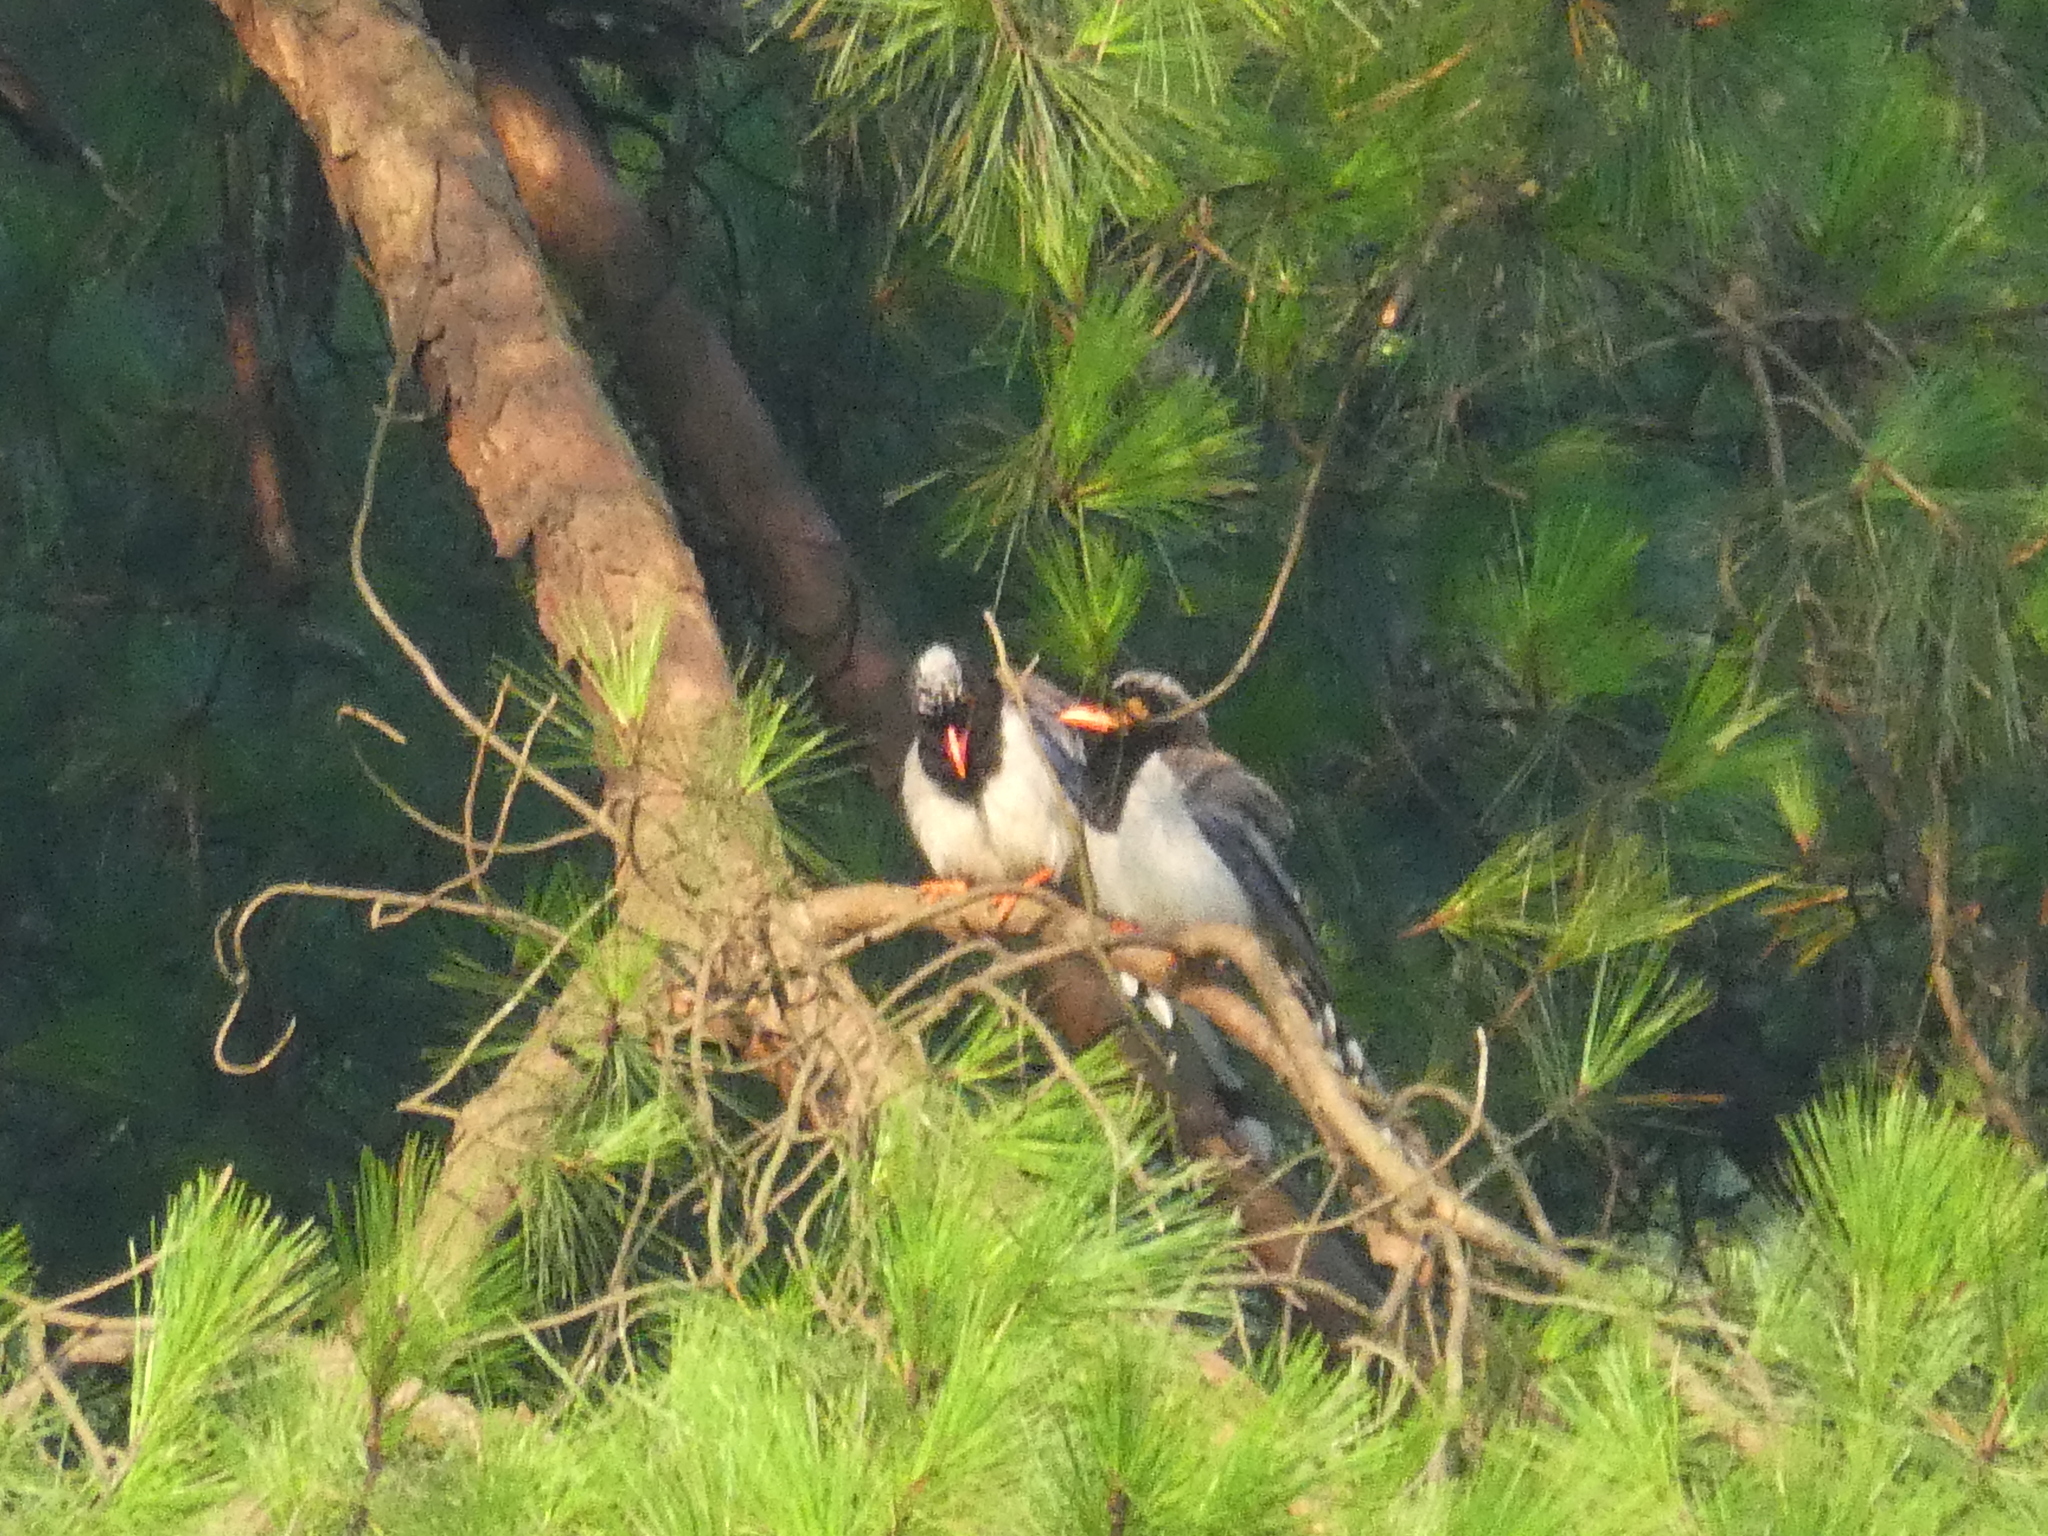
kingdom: Animalia
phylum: Chordata
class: Aves
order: Passeriformes
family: Corvidae
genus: Urocissa
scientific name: Urocissa erythroryncha
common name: Red-billed blue magpie
